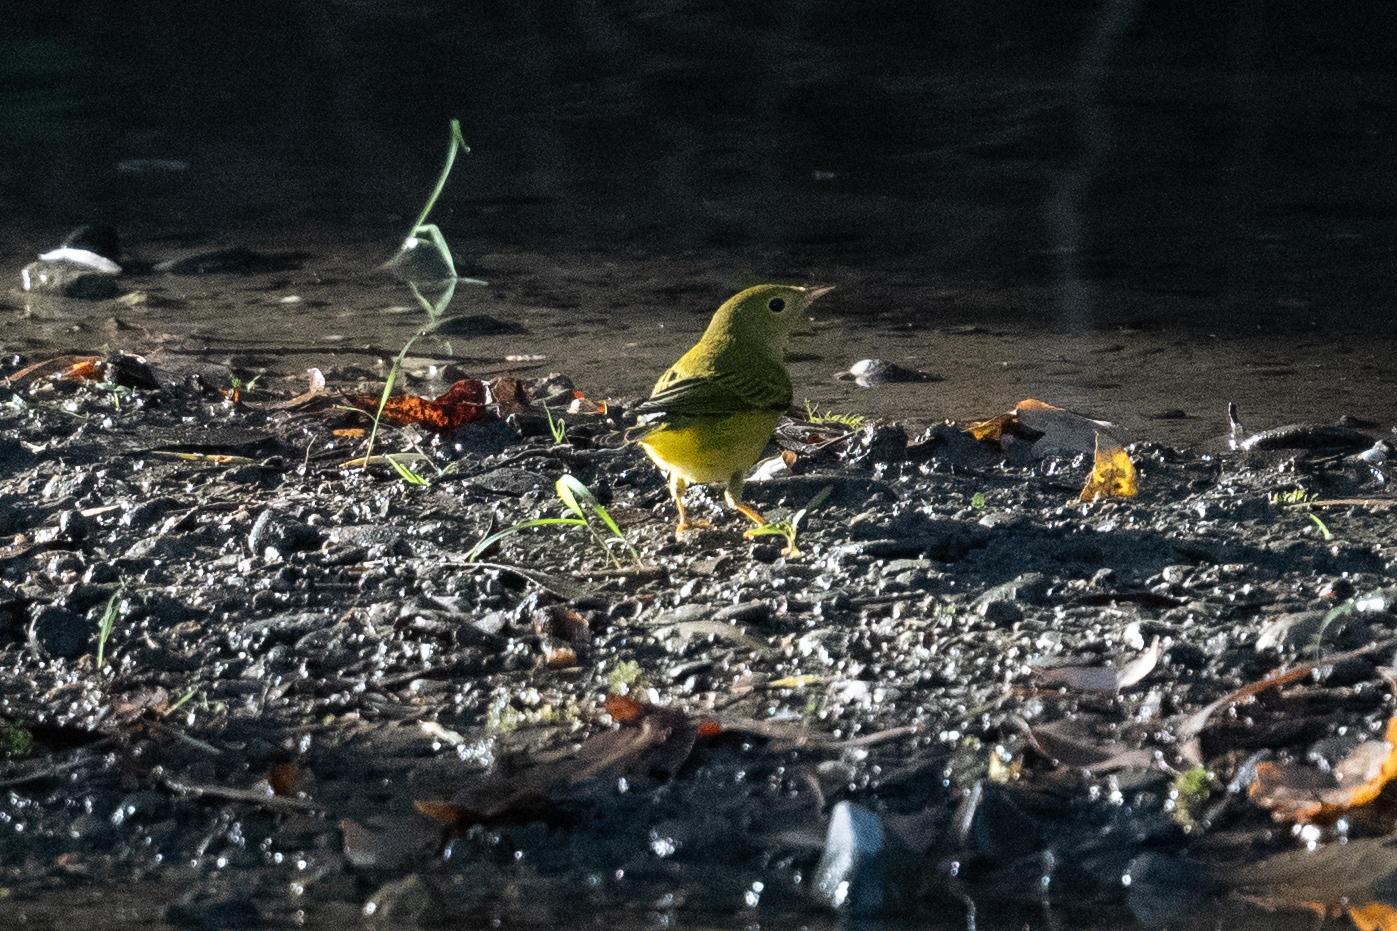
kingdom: Animalia
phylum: Chordata
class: Aves
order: Passeriformes
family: Parulidae
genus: Setophaga
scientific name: Setophaga petechia
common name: Yellow warbler
